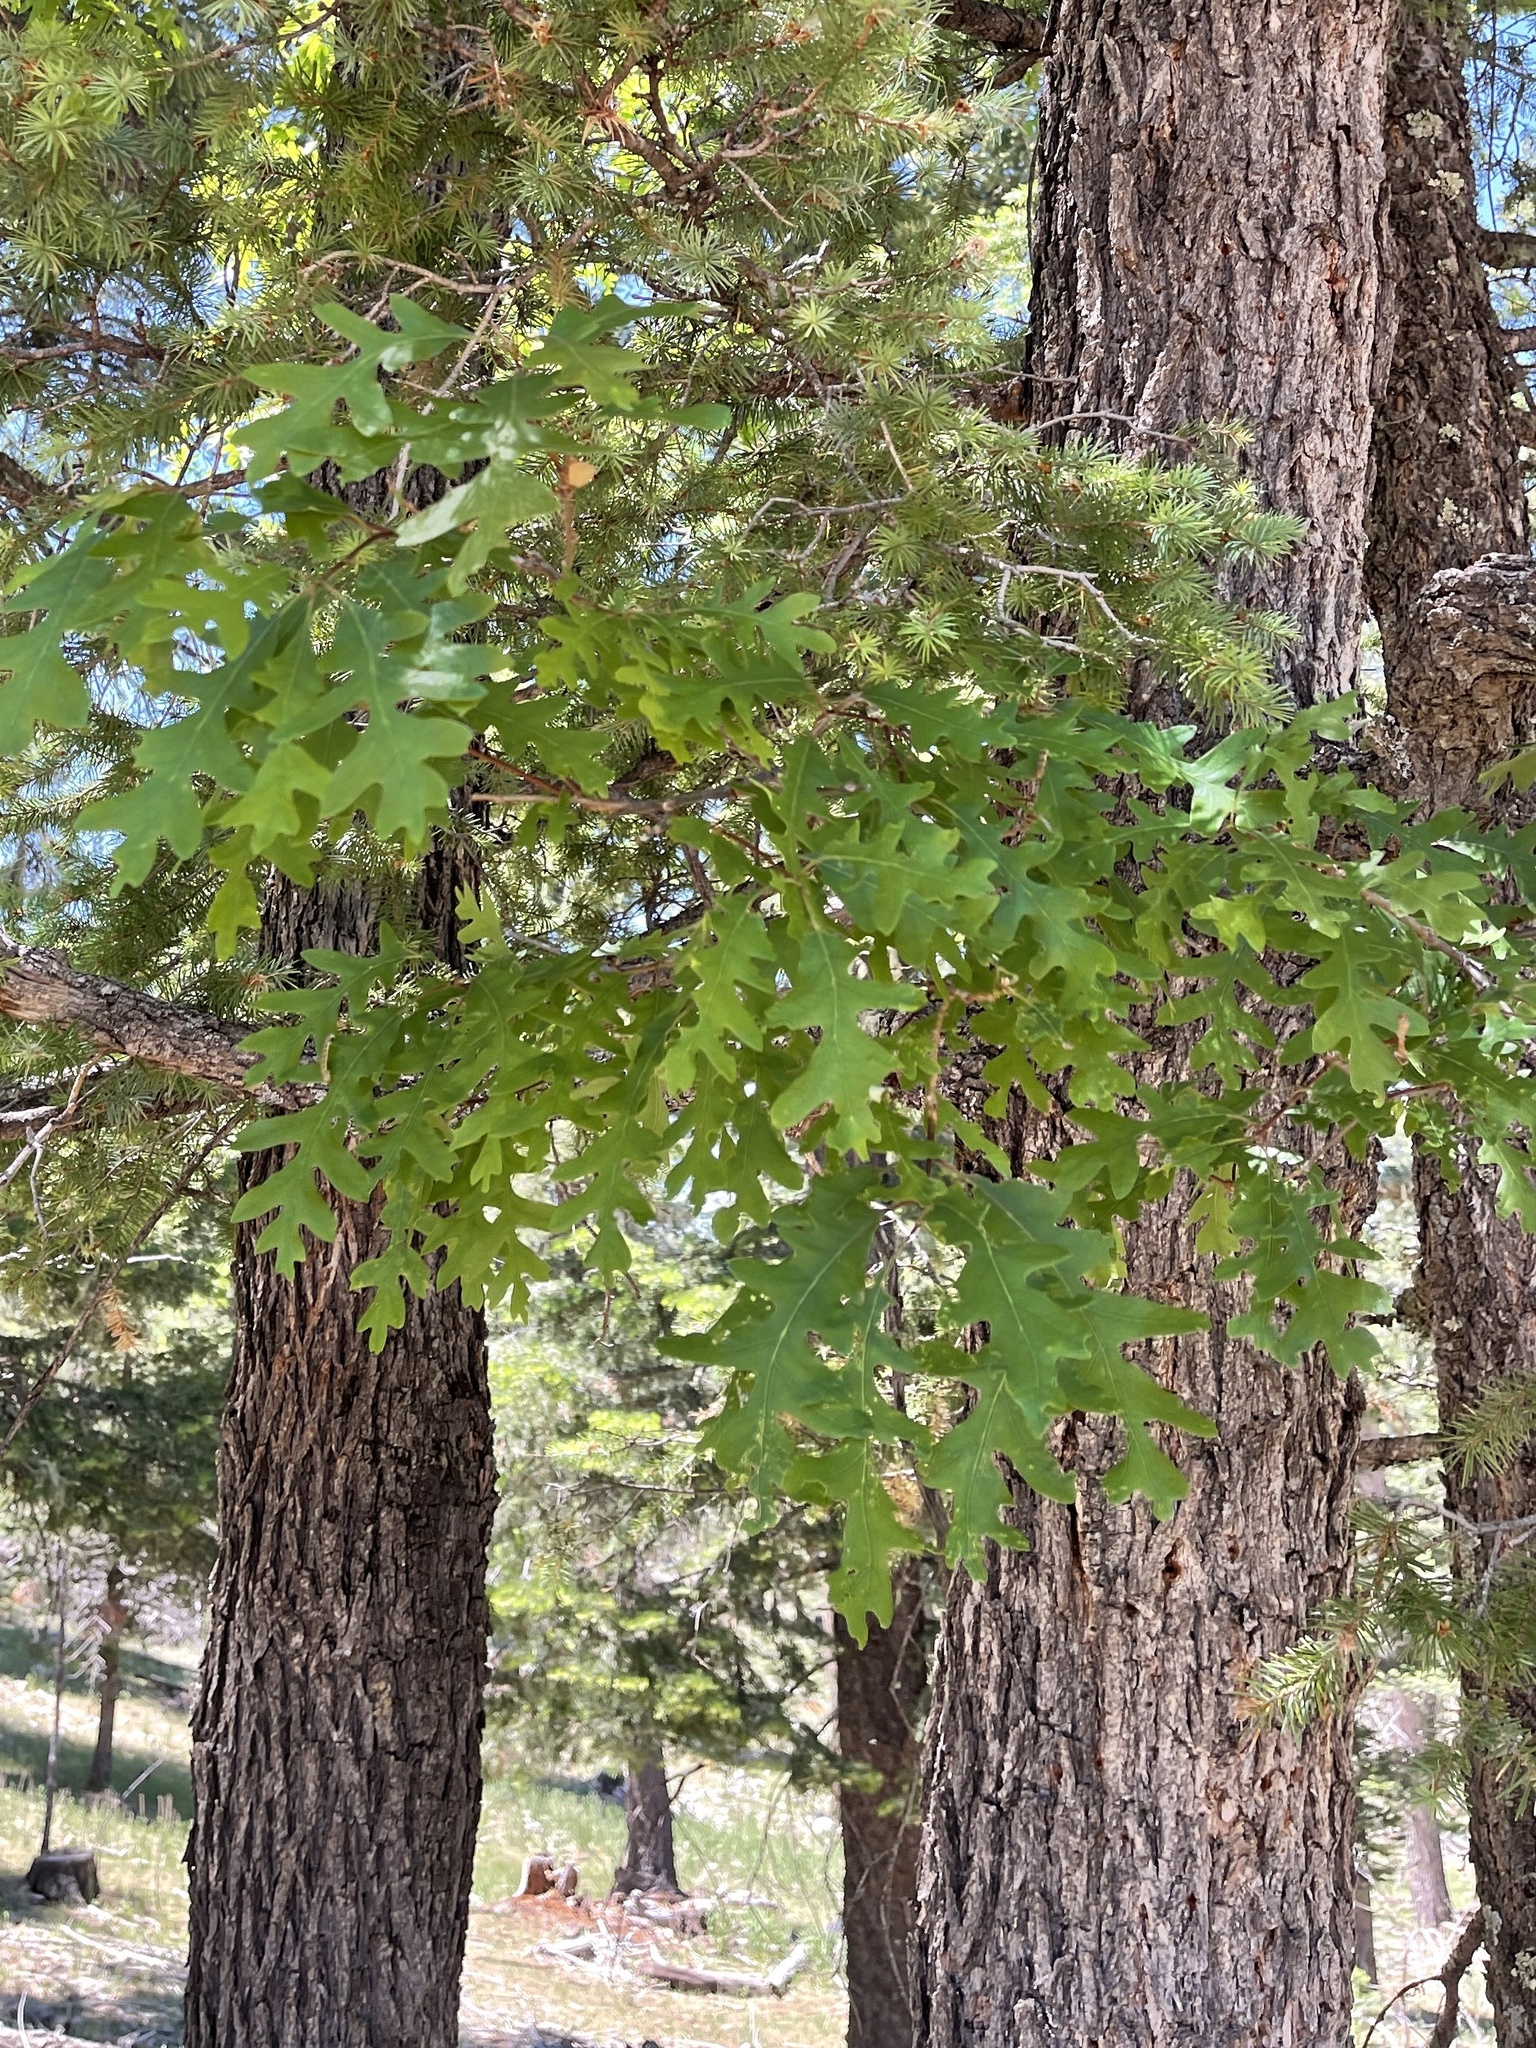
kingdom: Plantae
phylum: Tracheophyta
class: Magnoliopsida
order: Fagales
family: Fagaceae
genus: Quercus
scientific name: Quercus gambelii
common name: Gambel oak
